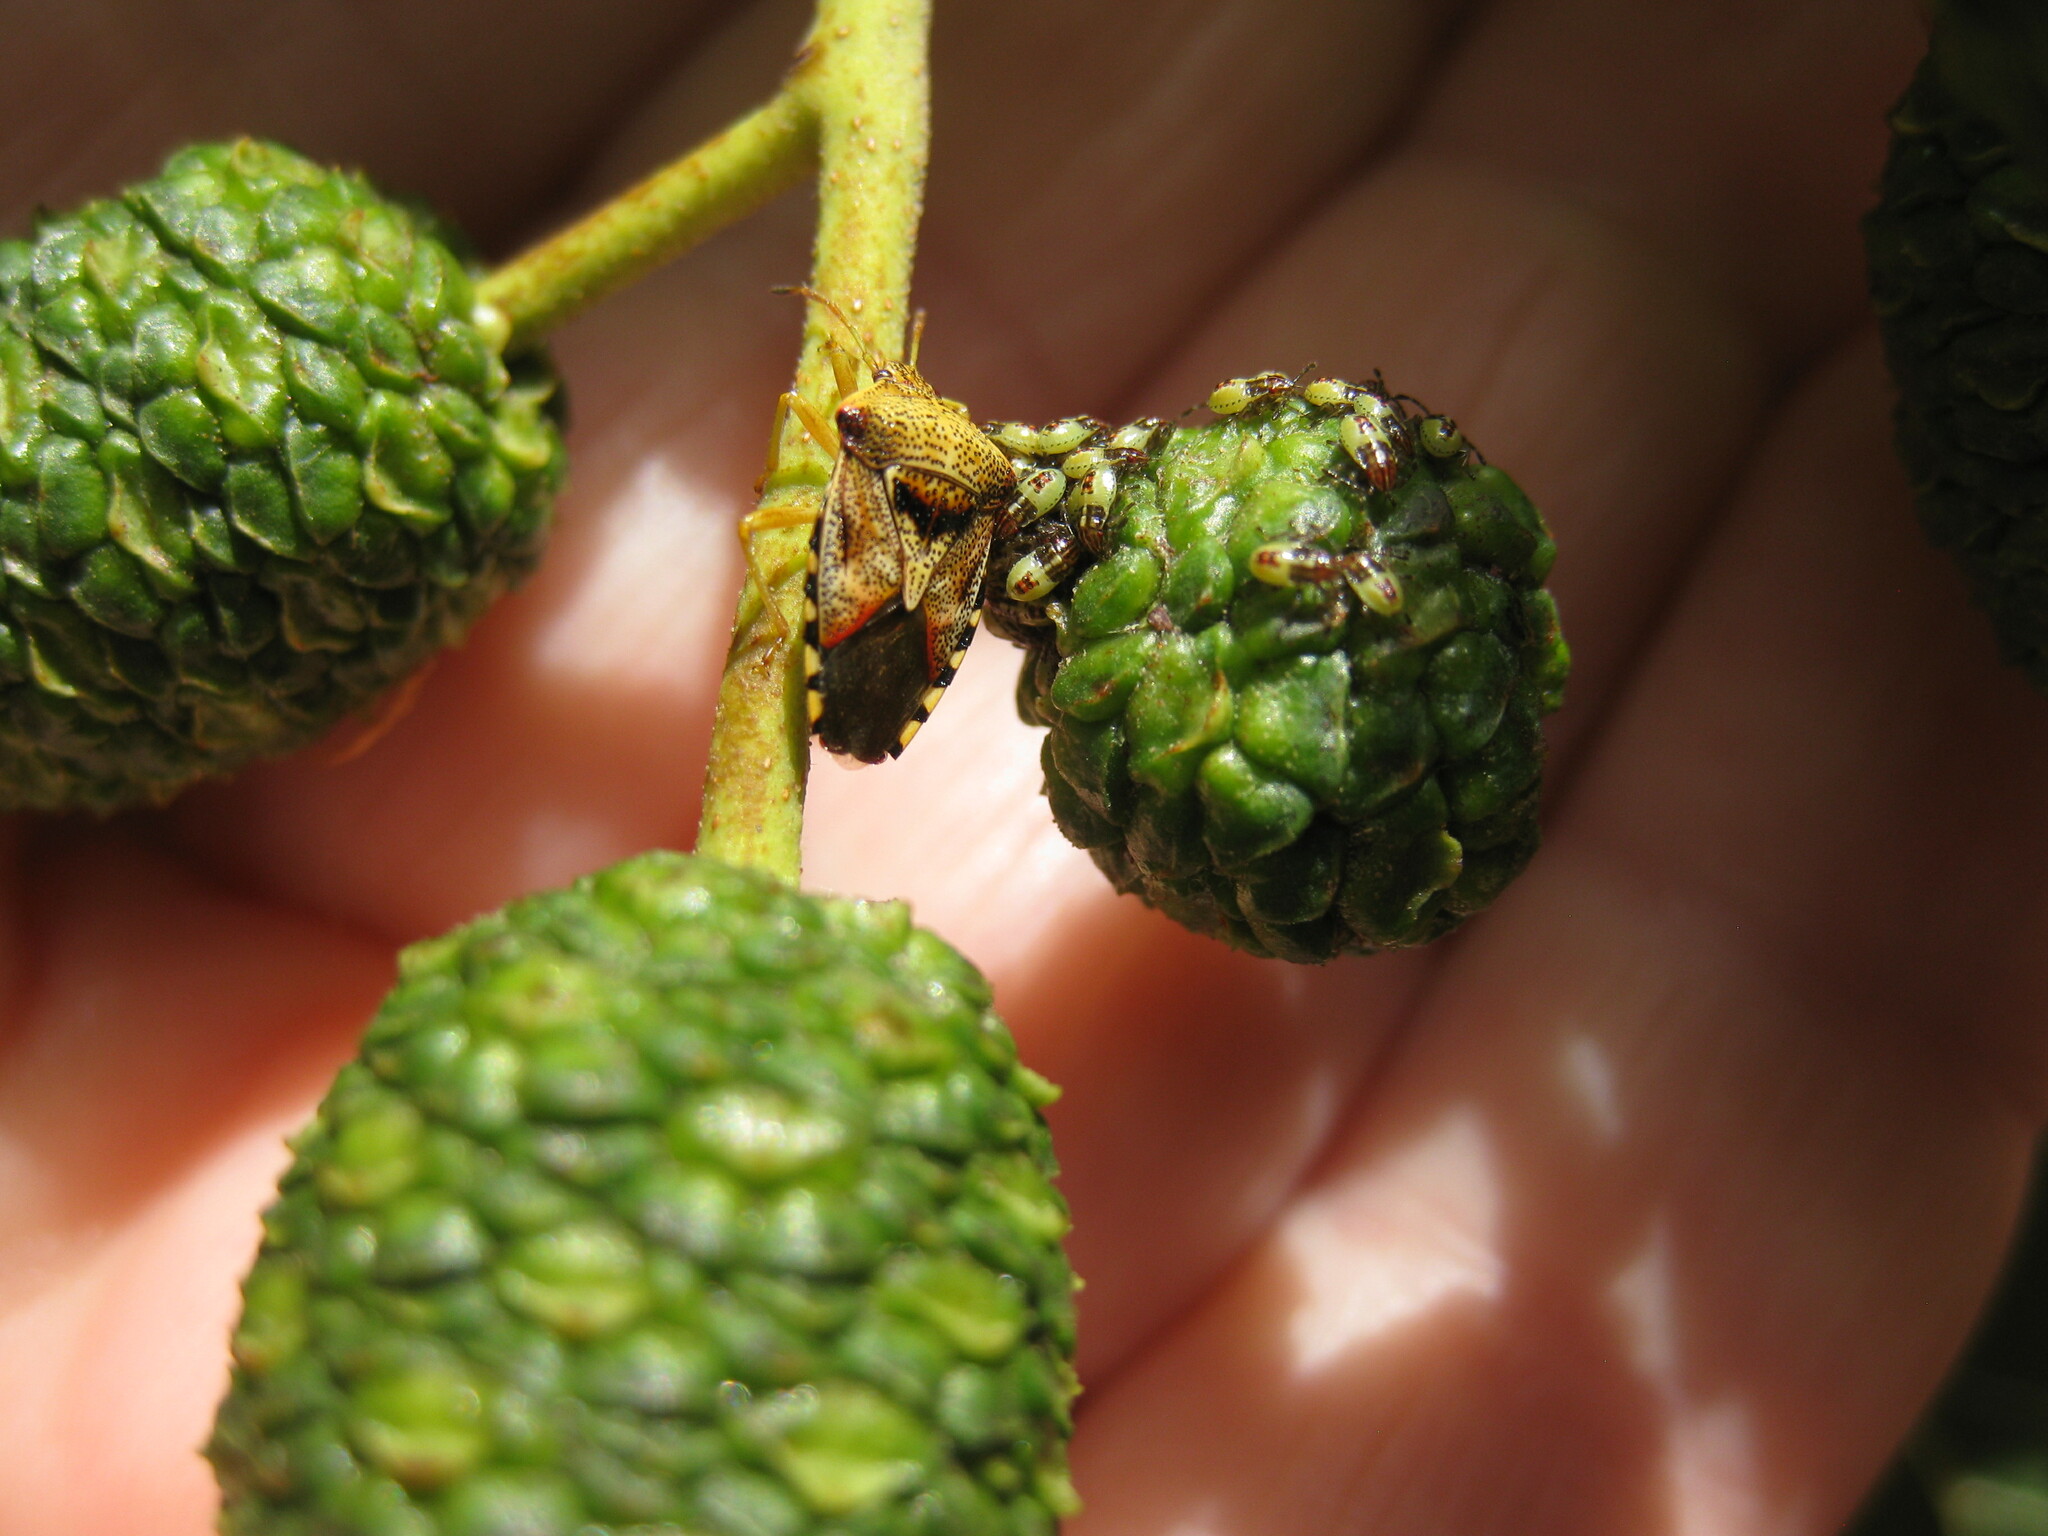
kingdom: Animalia
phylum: Arthropoda
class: Insecta
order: Hemiptera
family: Acanthosomatidae
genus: Elasmucha
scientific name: Elasmucha grisea
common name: Parent bug
